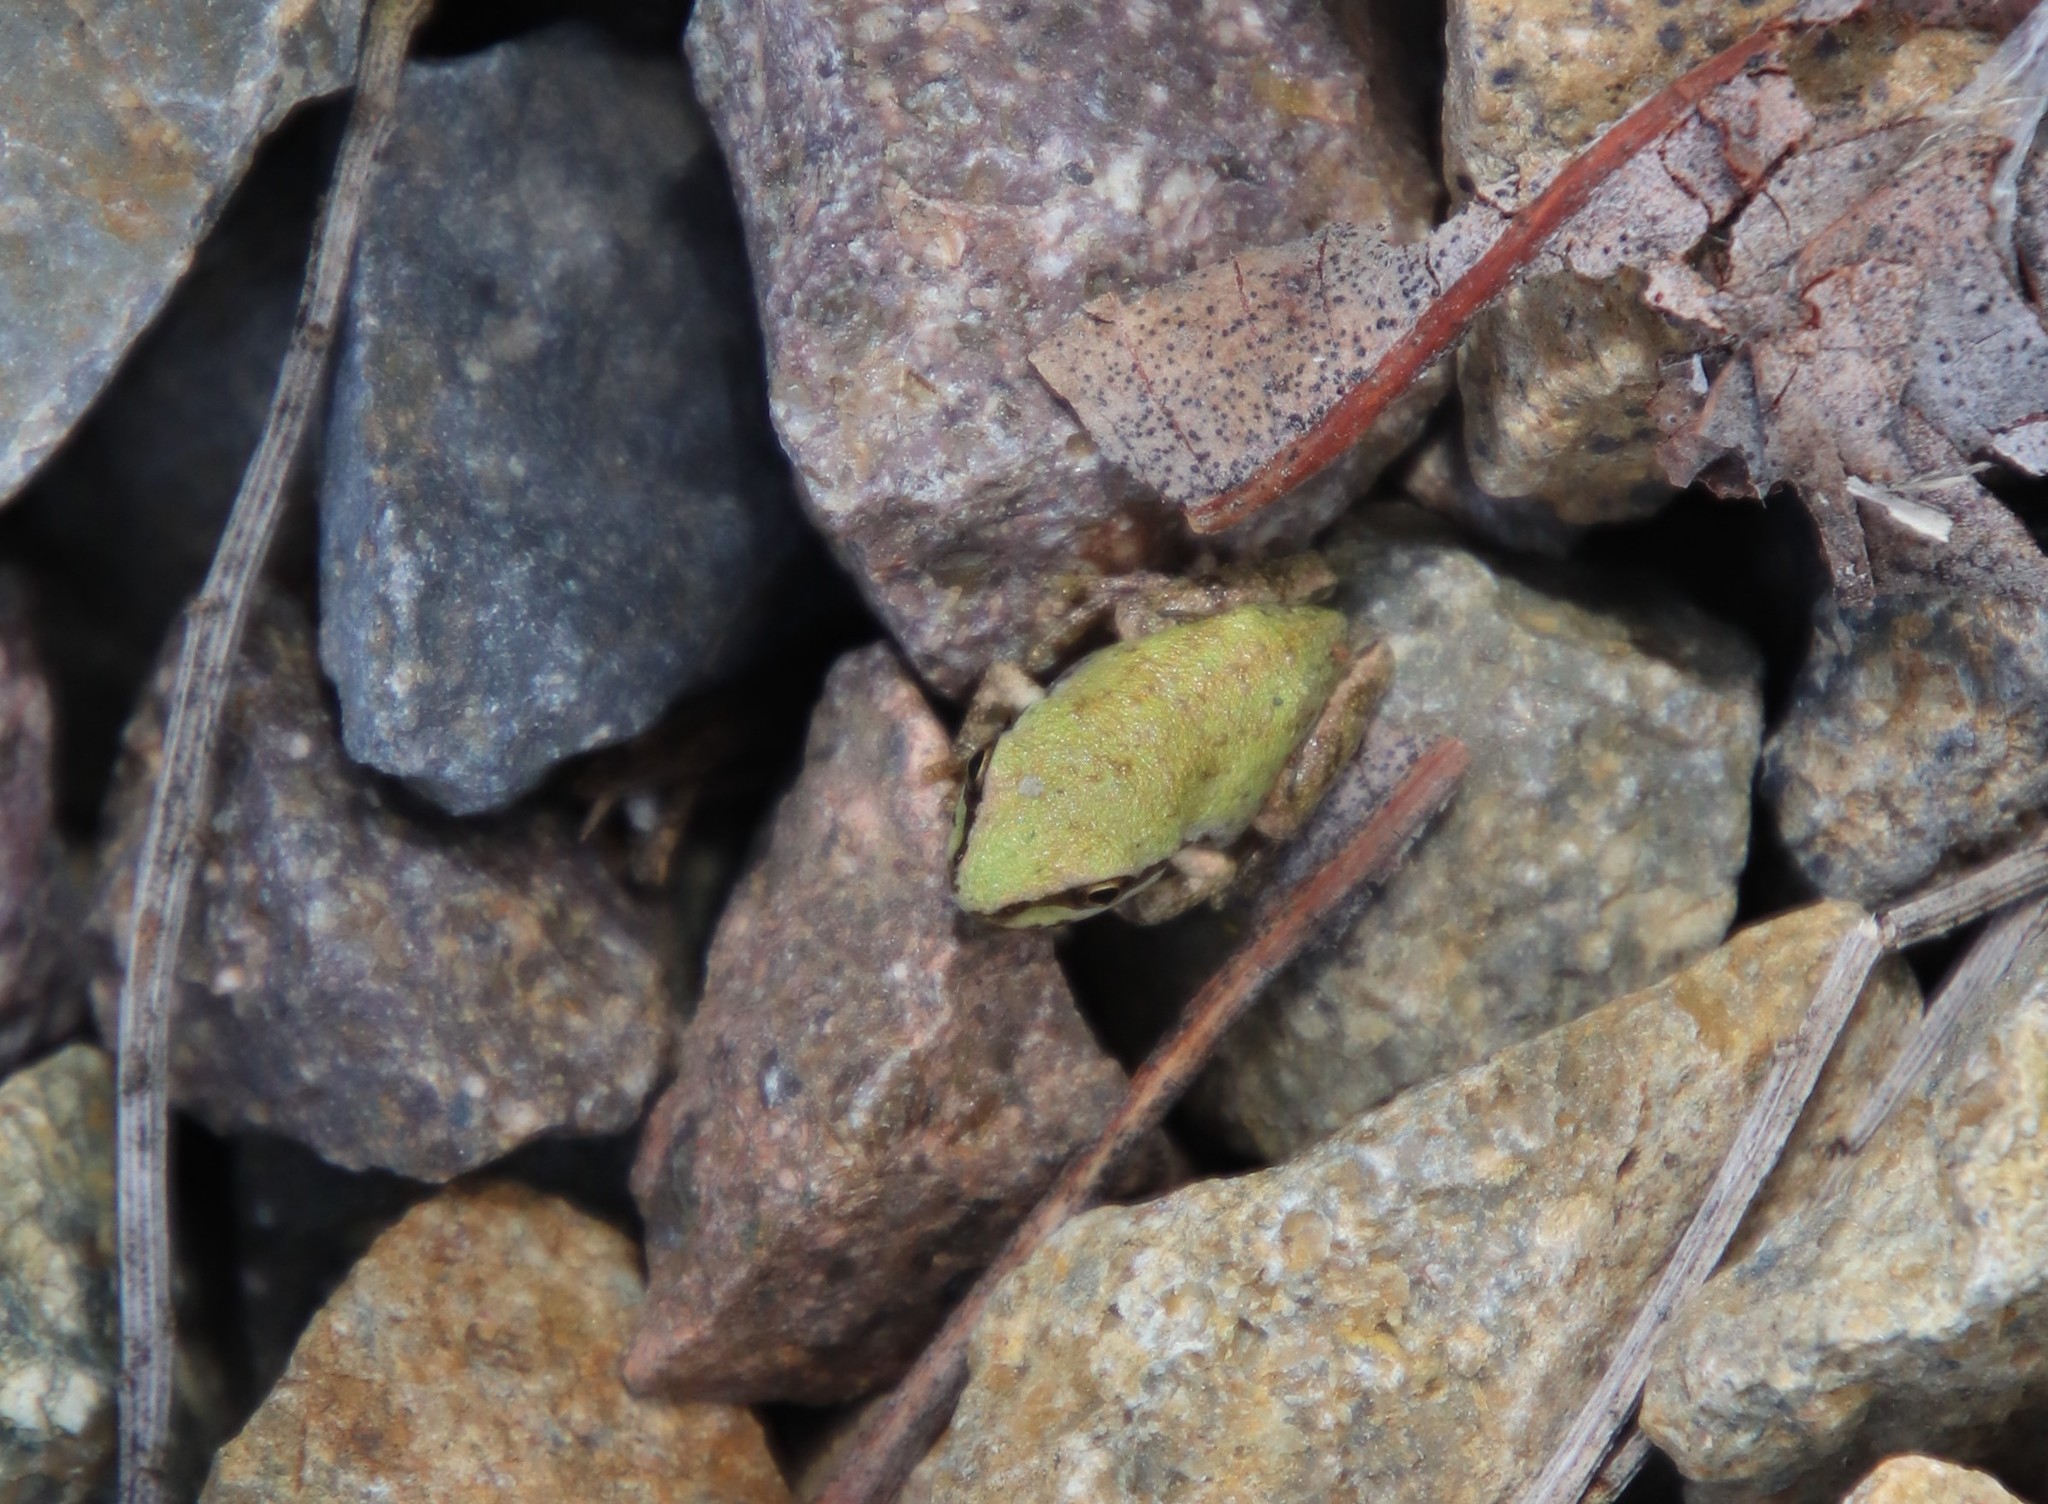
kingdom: Animalia
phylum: Chordata
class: Amphibia
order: Anura
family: Hylidae
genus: Pseudacris
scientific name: Pseudacris regilla
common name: Pacific chorus frog
